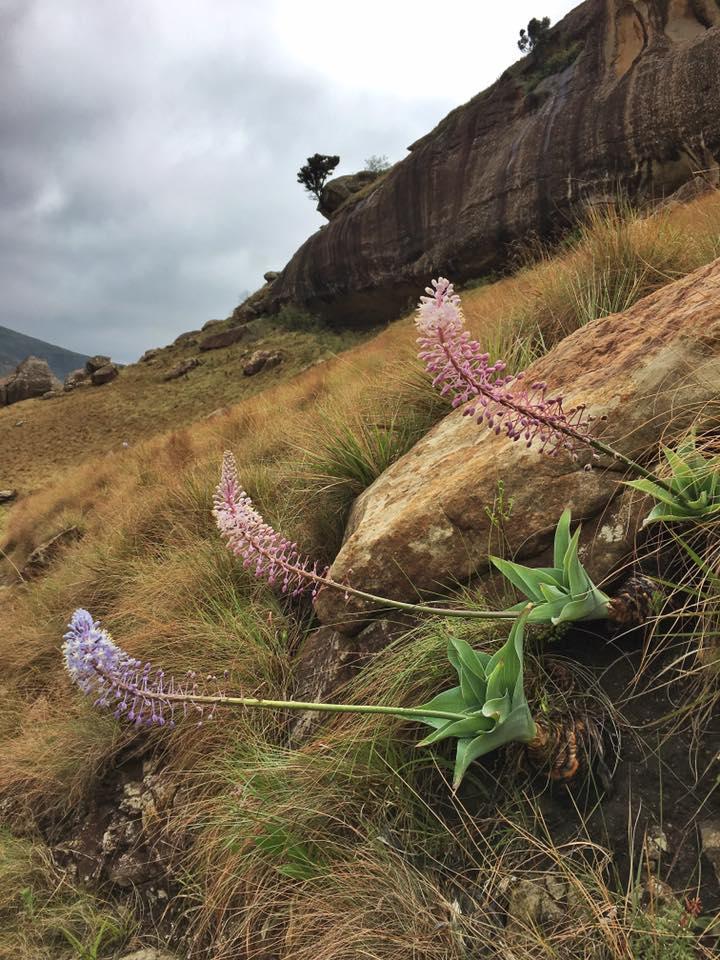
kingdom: Plantae
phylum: Tracheophyta
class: Liliopsida
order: Asparagales
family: Asparagaceae
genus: Merwilla
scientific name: Merwilla plumbea
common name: Blue-squill
